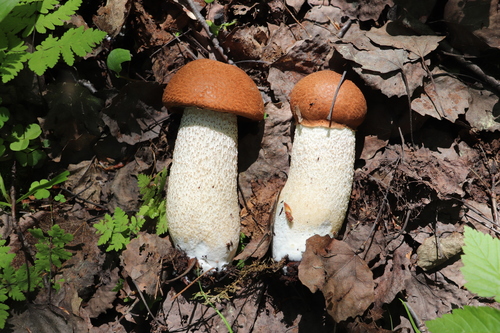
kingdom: Fungi
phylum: Basidiomycota
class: Agaricomycetes
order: Boletales
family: Boletaceae
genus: Leccinum
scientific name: Leccinum versipelle
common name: Orange birch bolete
